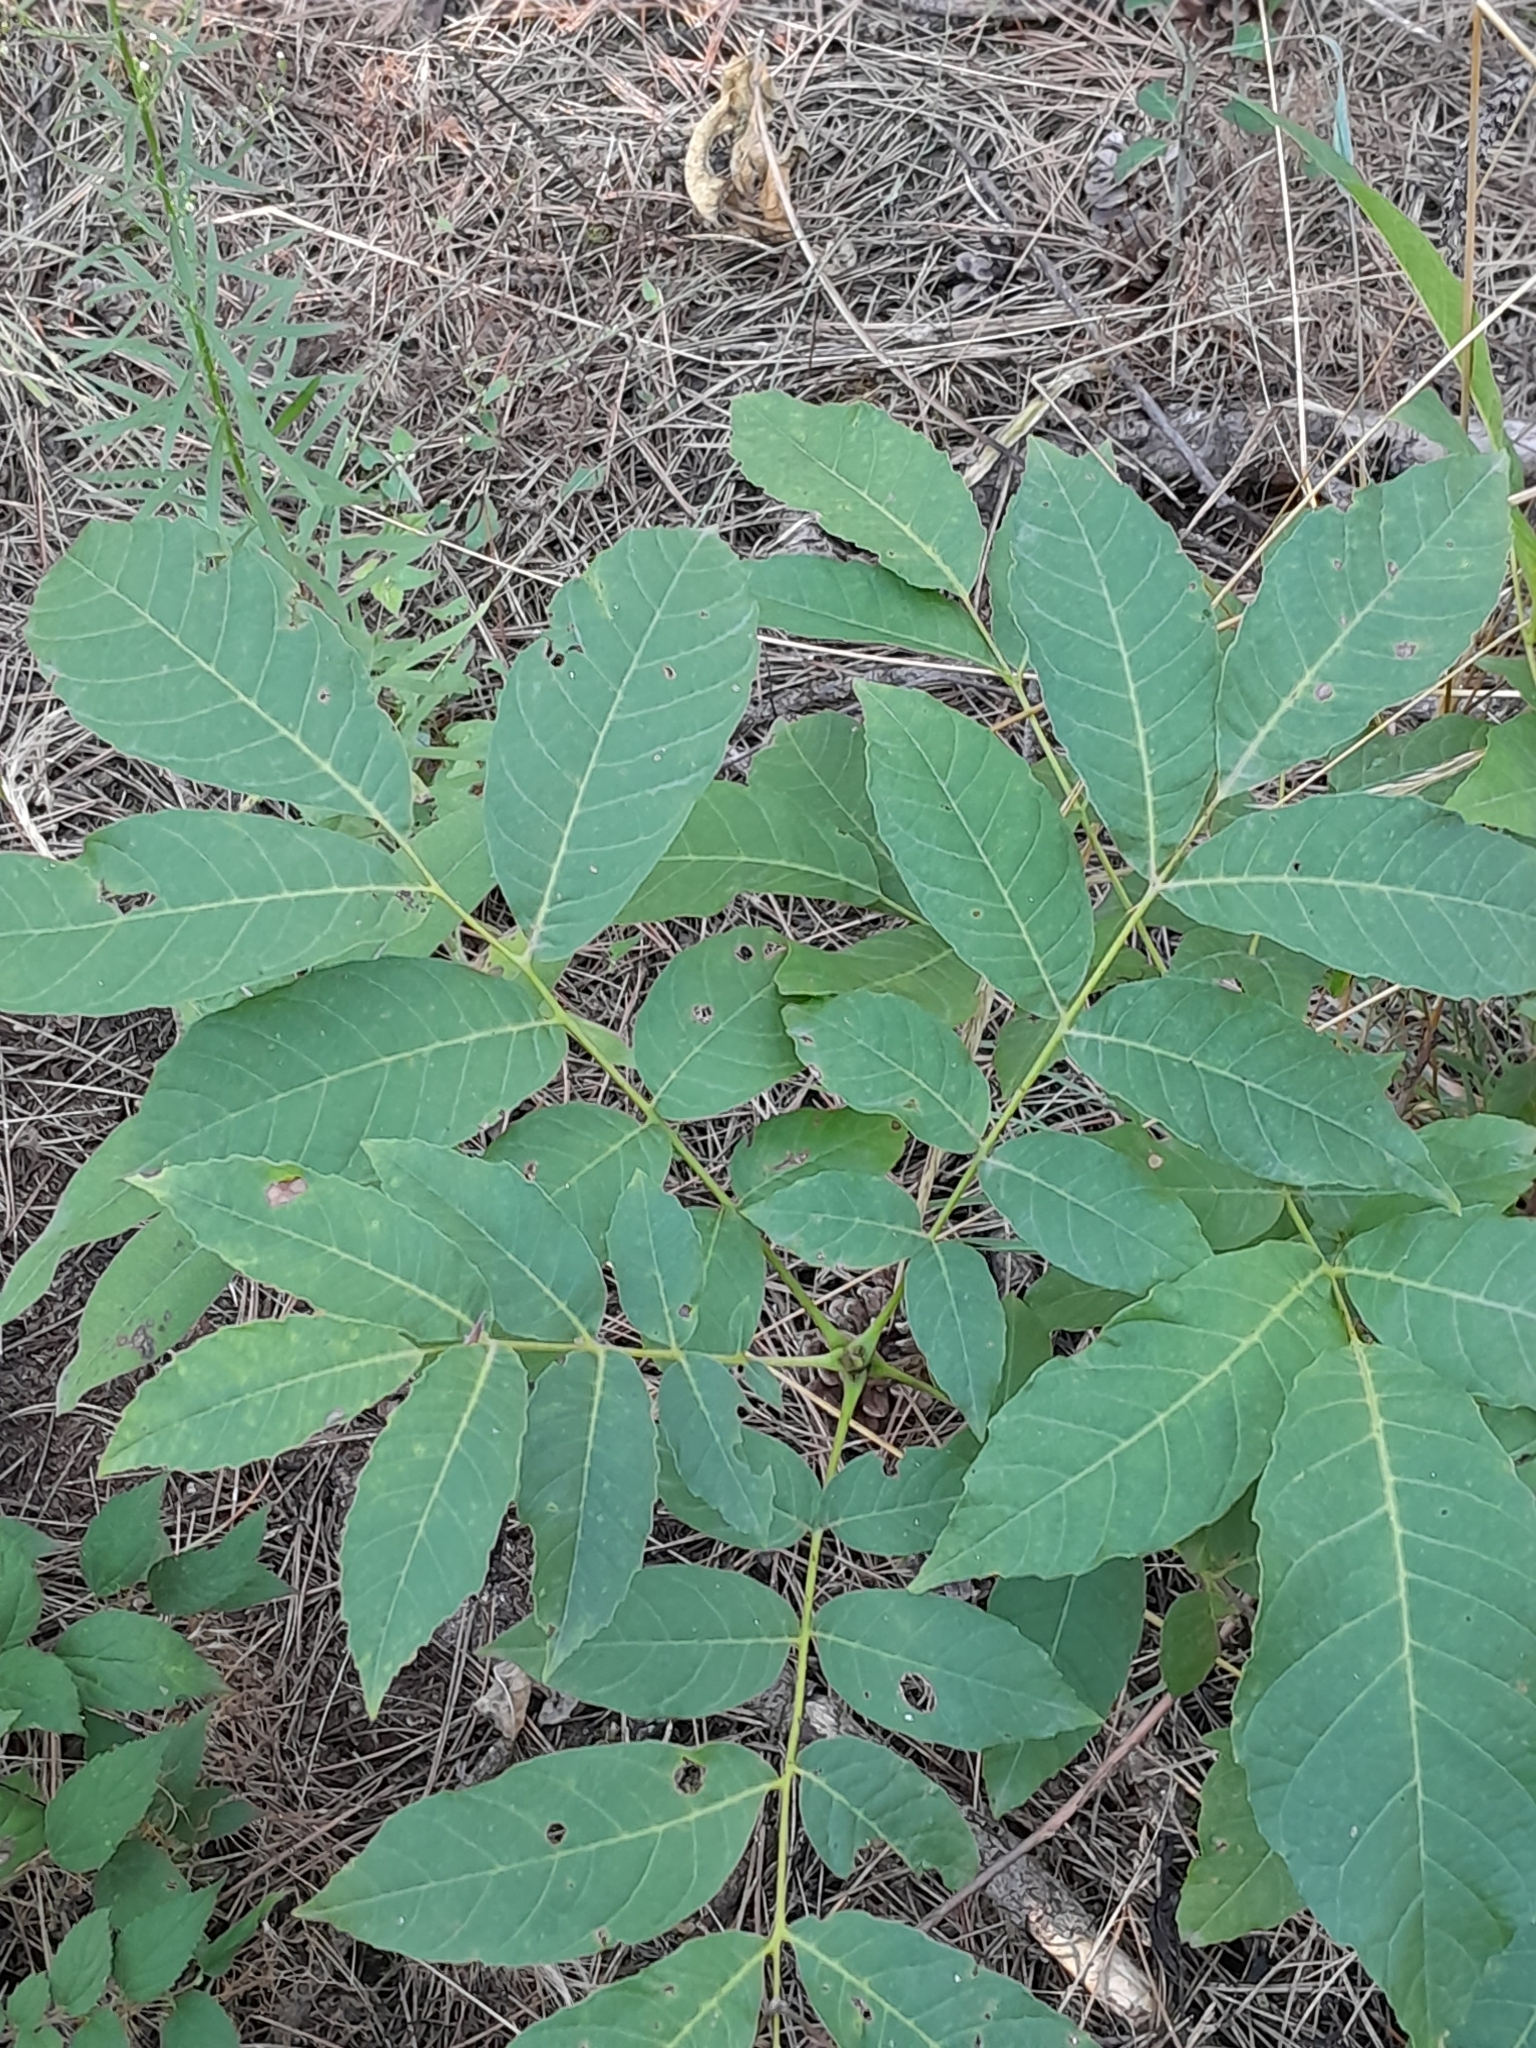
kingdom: Plantae
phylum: Tracheophyta
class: Magnoliopsida
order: Fagales
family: Juglandaceae
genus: Juglans
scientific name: Juglans regia
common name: Walnut
